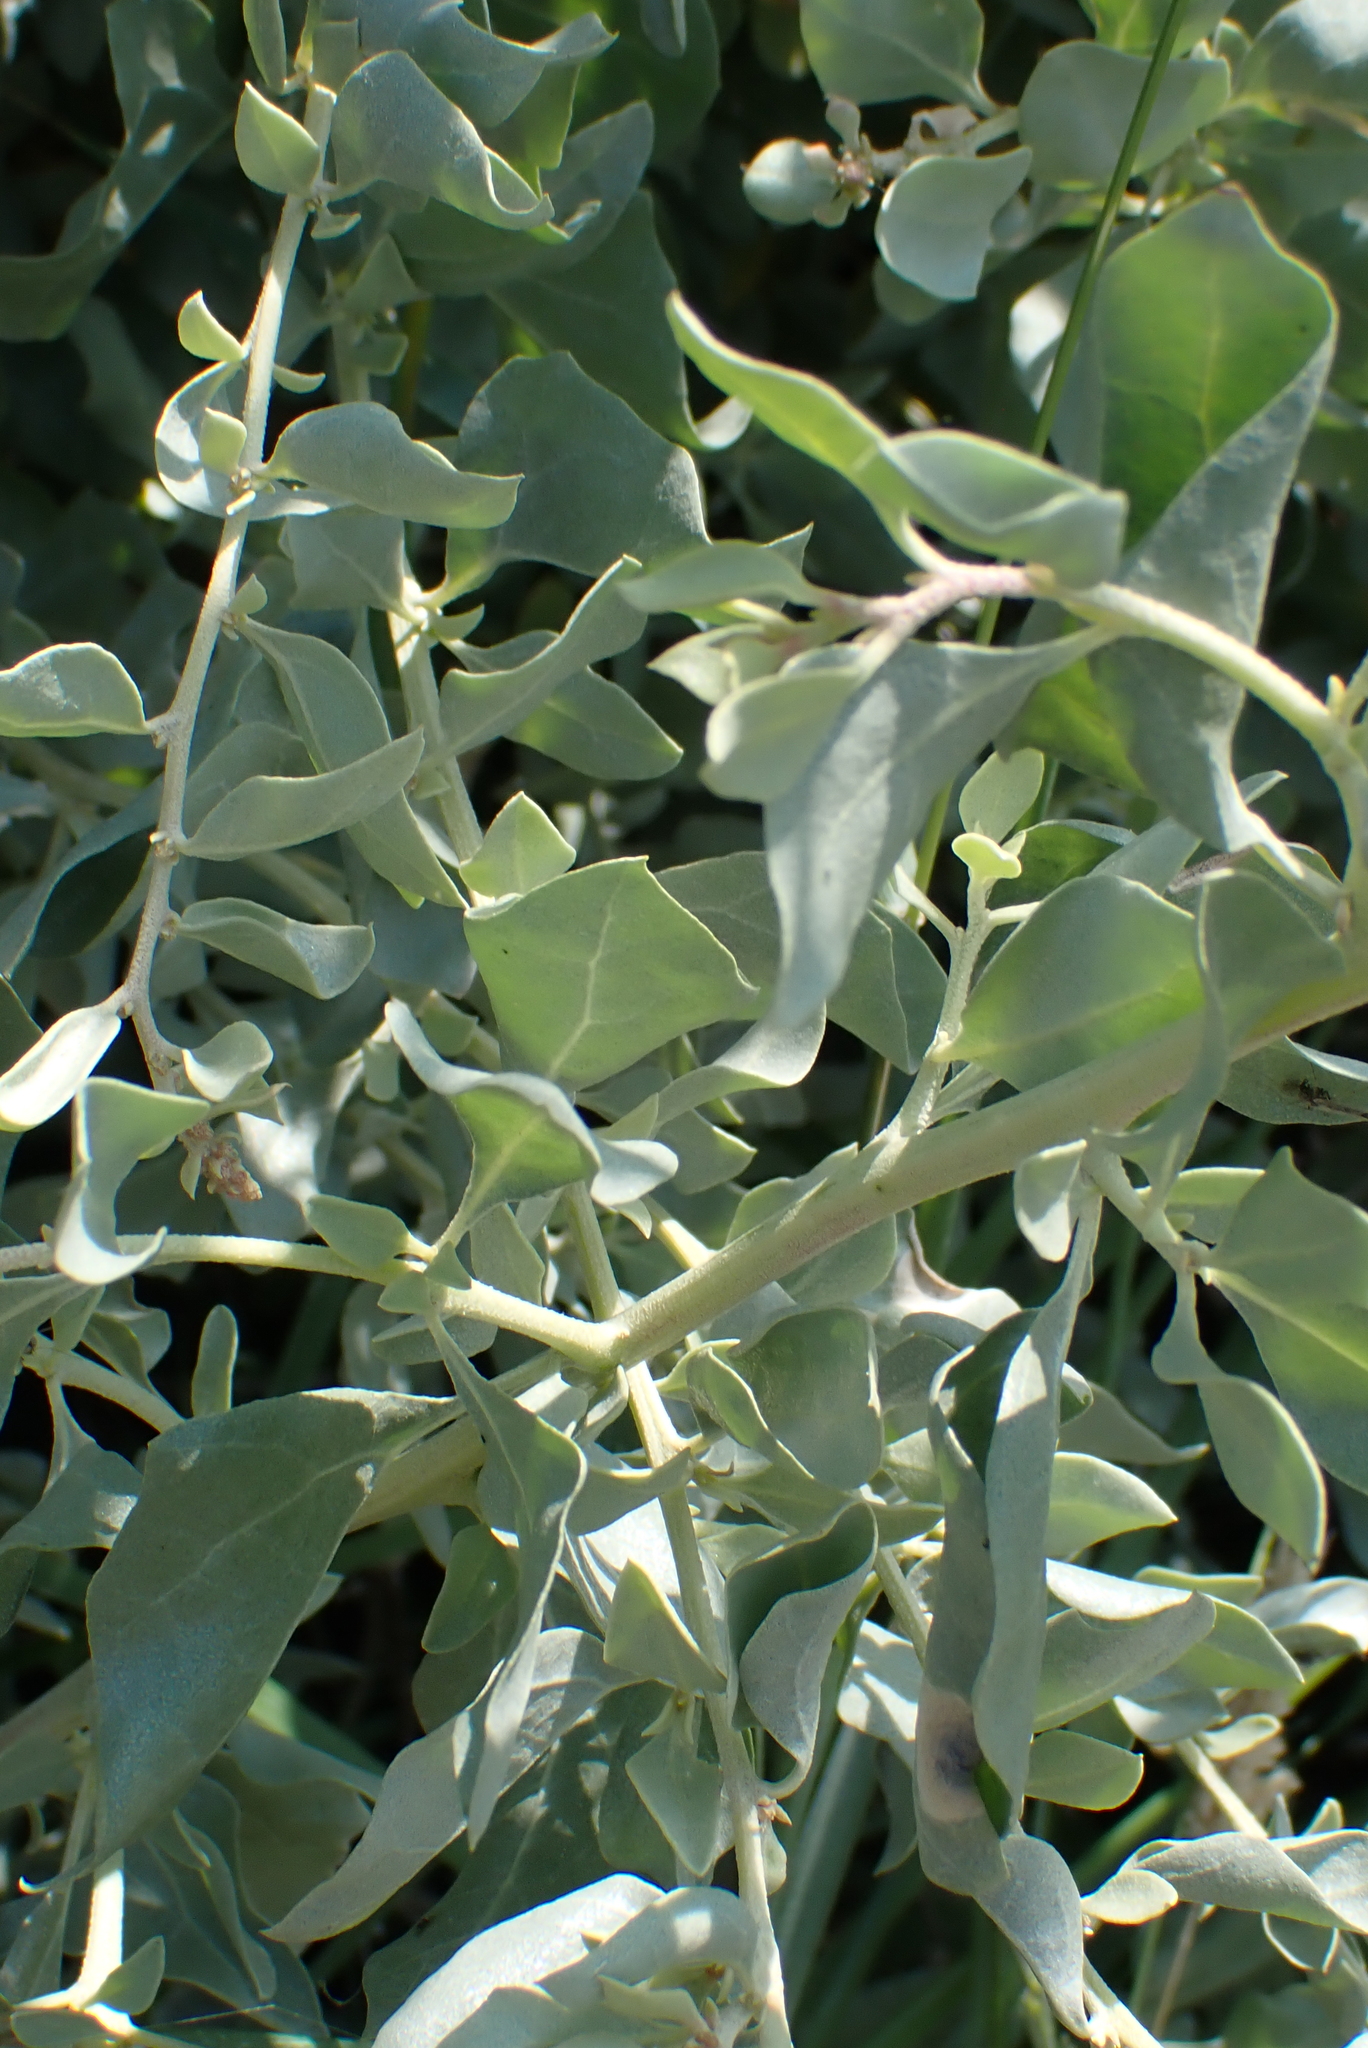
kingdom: Plantae
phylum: Tracheophyta
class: Magnoliopsida
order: Caryophyllales
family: Amaranthaceae
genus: Atriplex
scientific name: Atriplex halimus
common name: Shrubby orache
